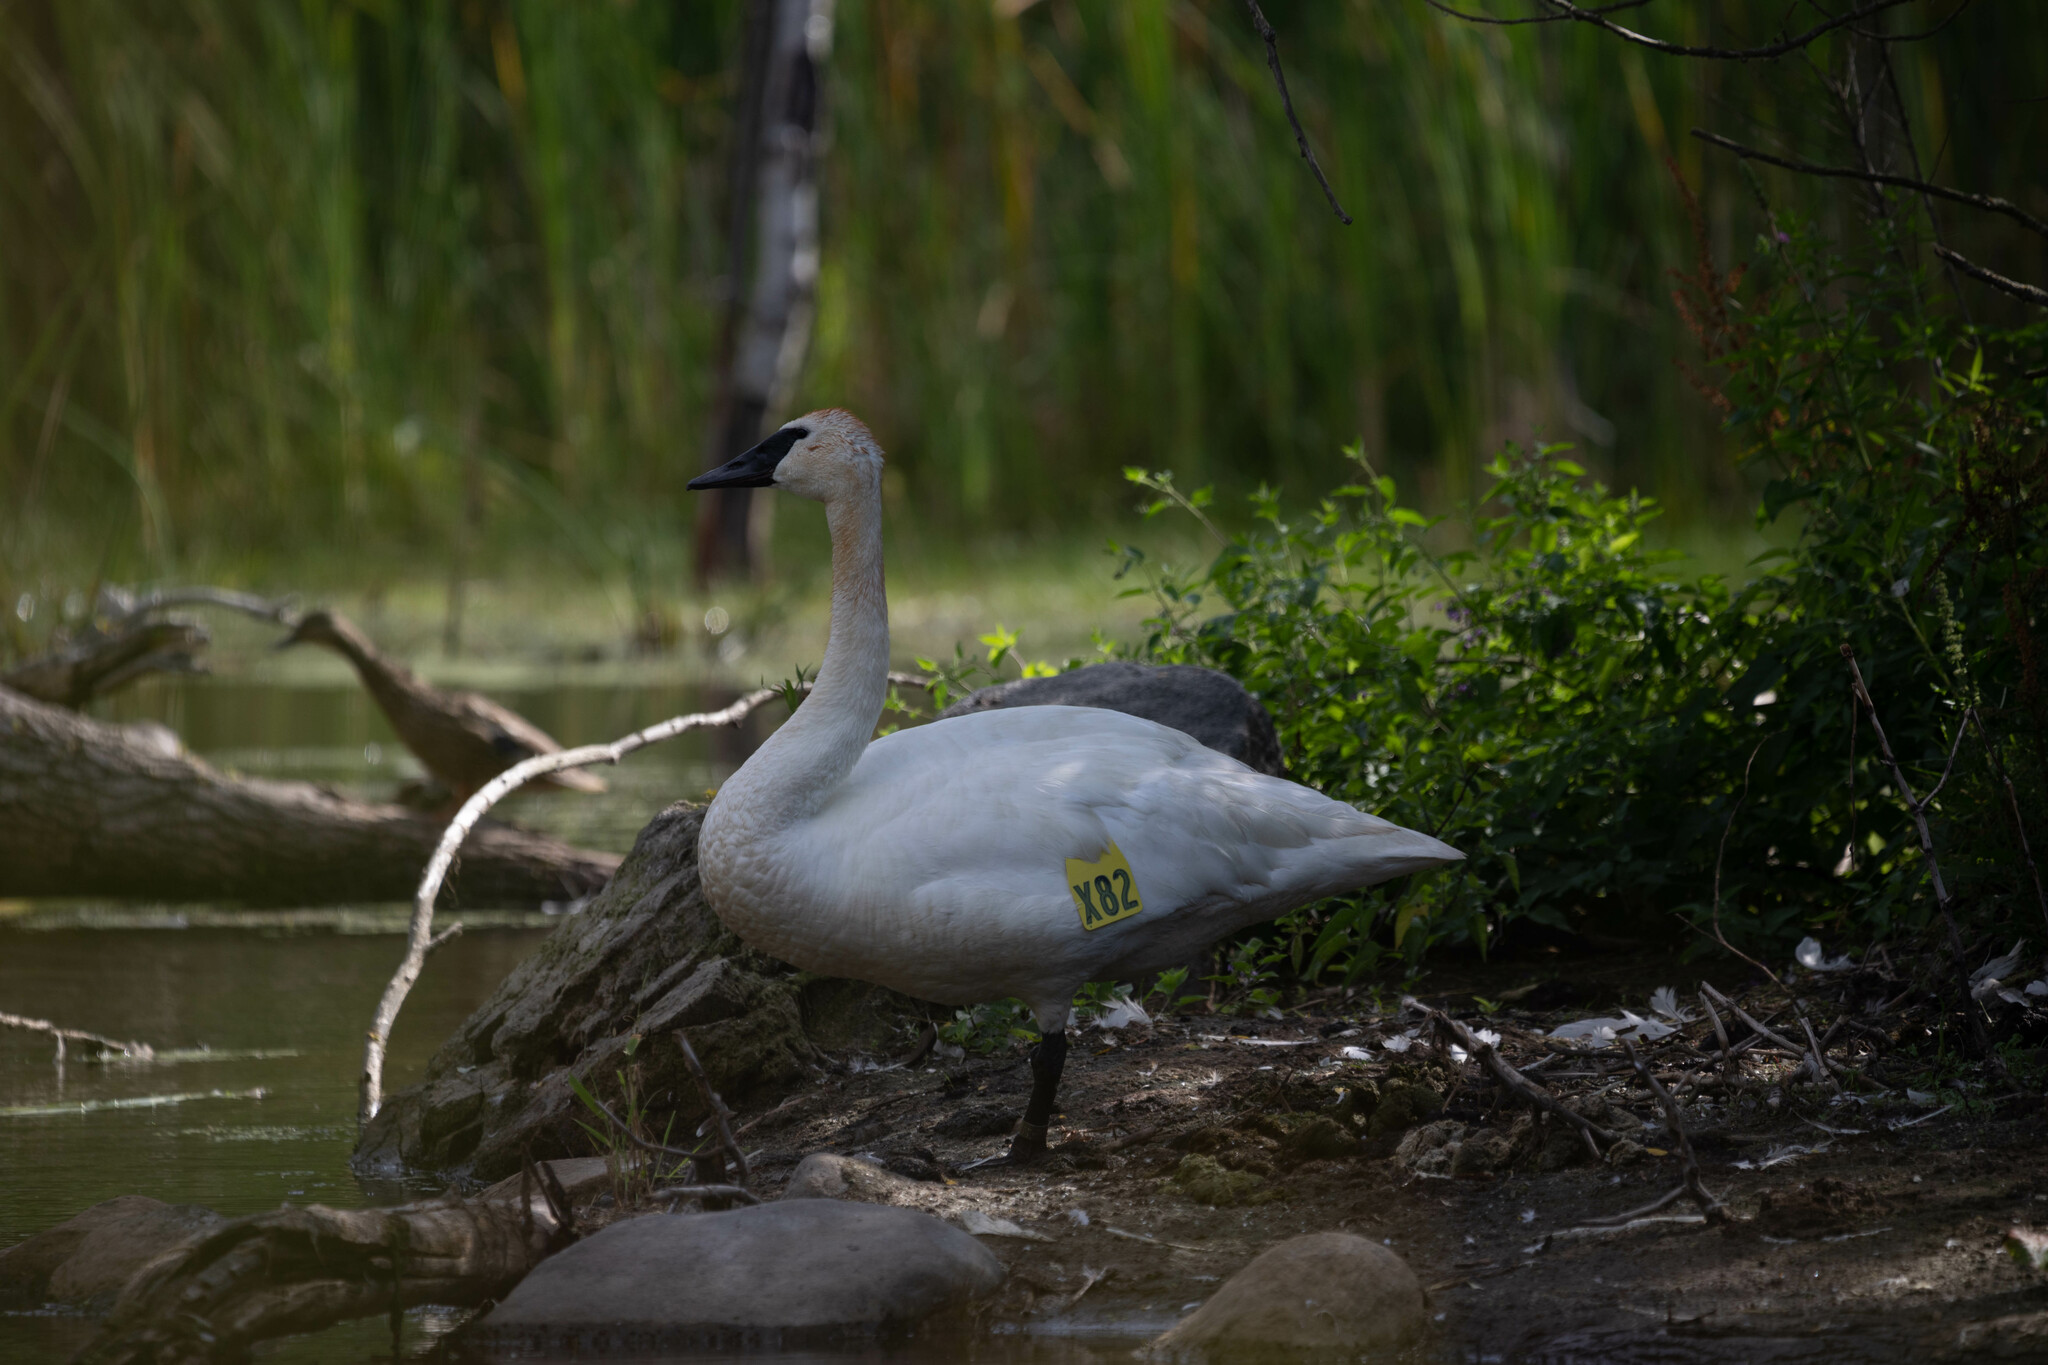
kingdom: Animalia
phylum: Chordata
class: Aves
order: Anseriformes
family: Anatidae
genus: Cygnus
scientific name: Cygnus buccinator
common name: Trumpeter swan
